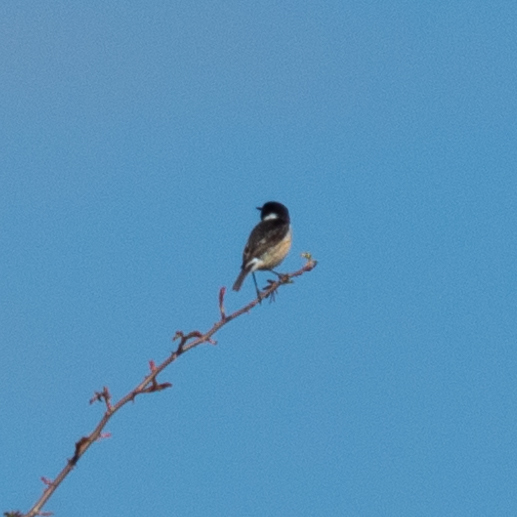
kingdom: Animalia
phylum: Chordata
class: Aves
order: Passeriformes
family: Muscicapidae
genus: Saxicola
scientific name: Saxicola rubicola
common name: European stonechat
